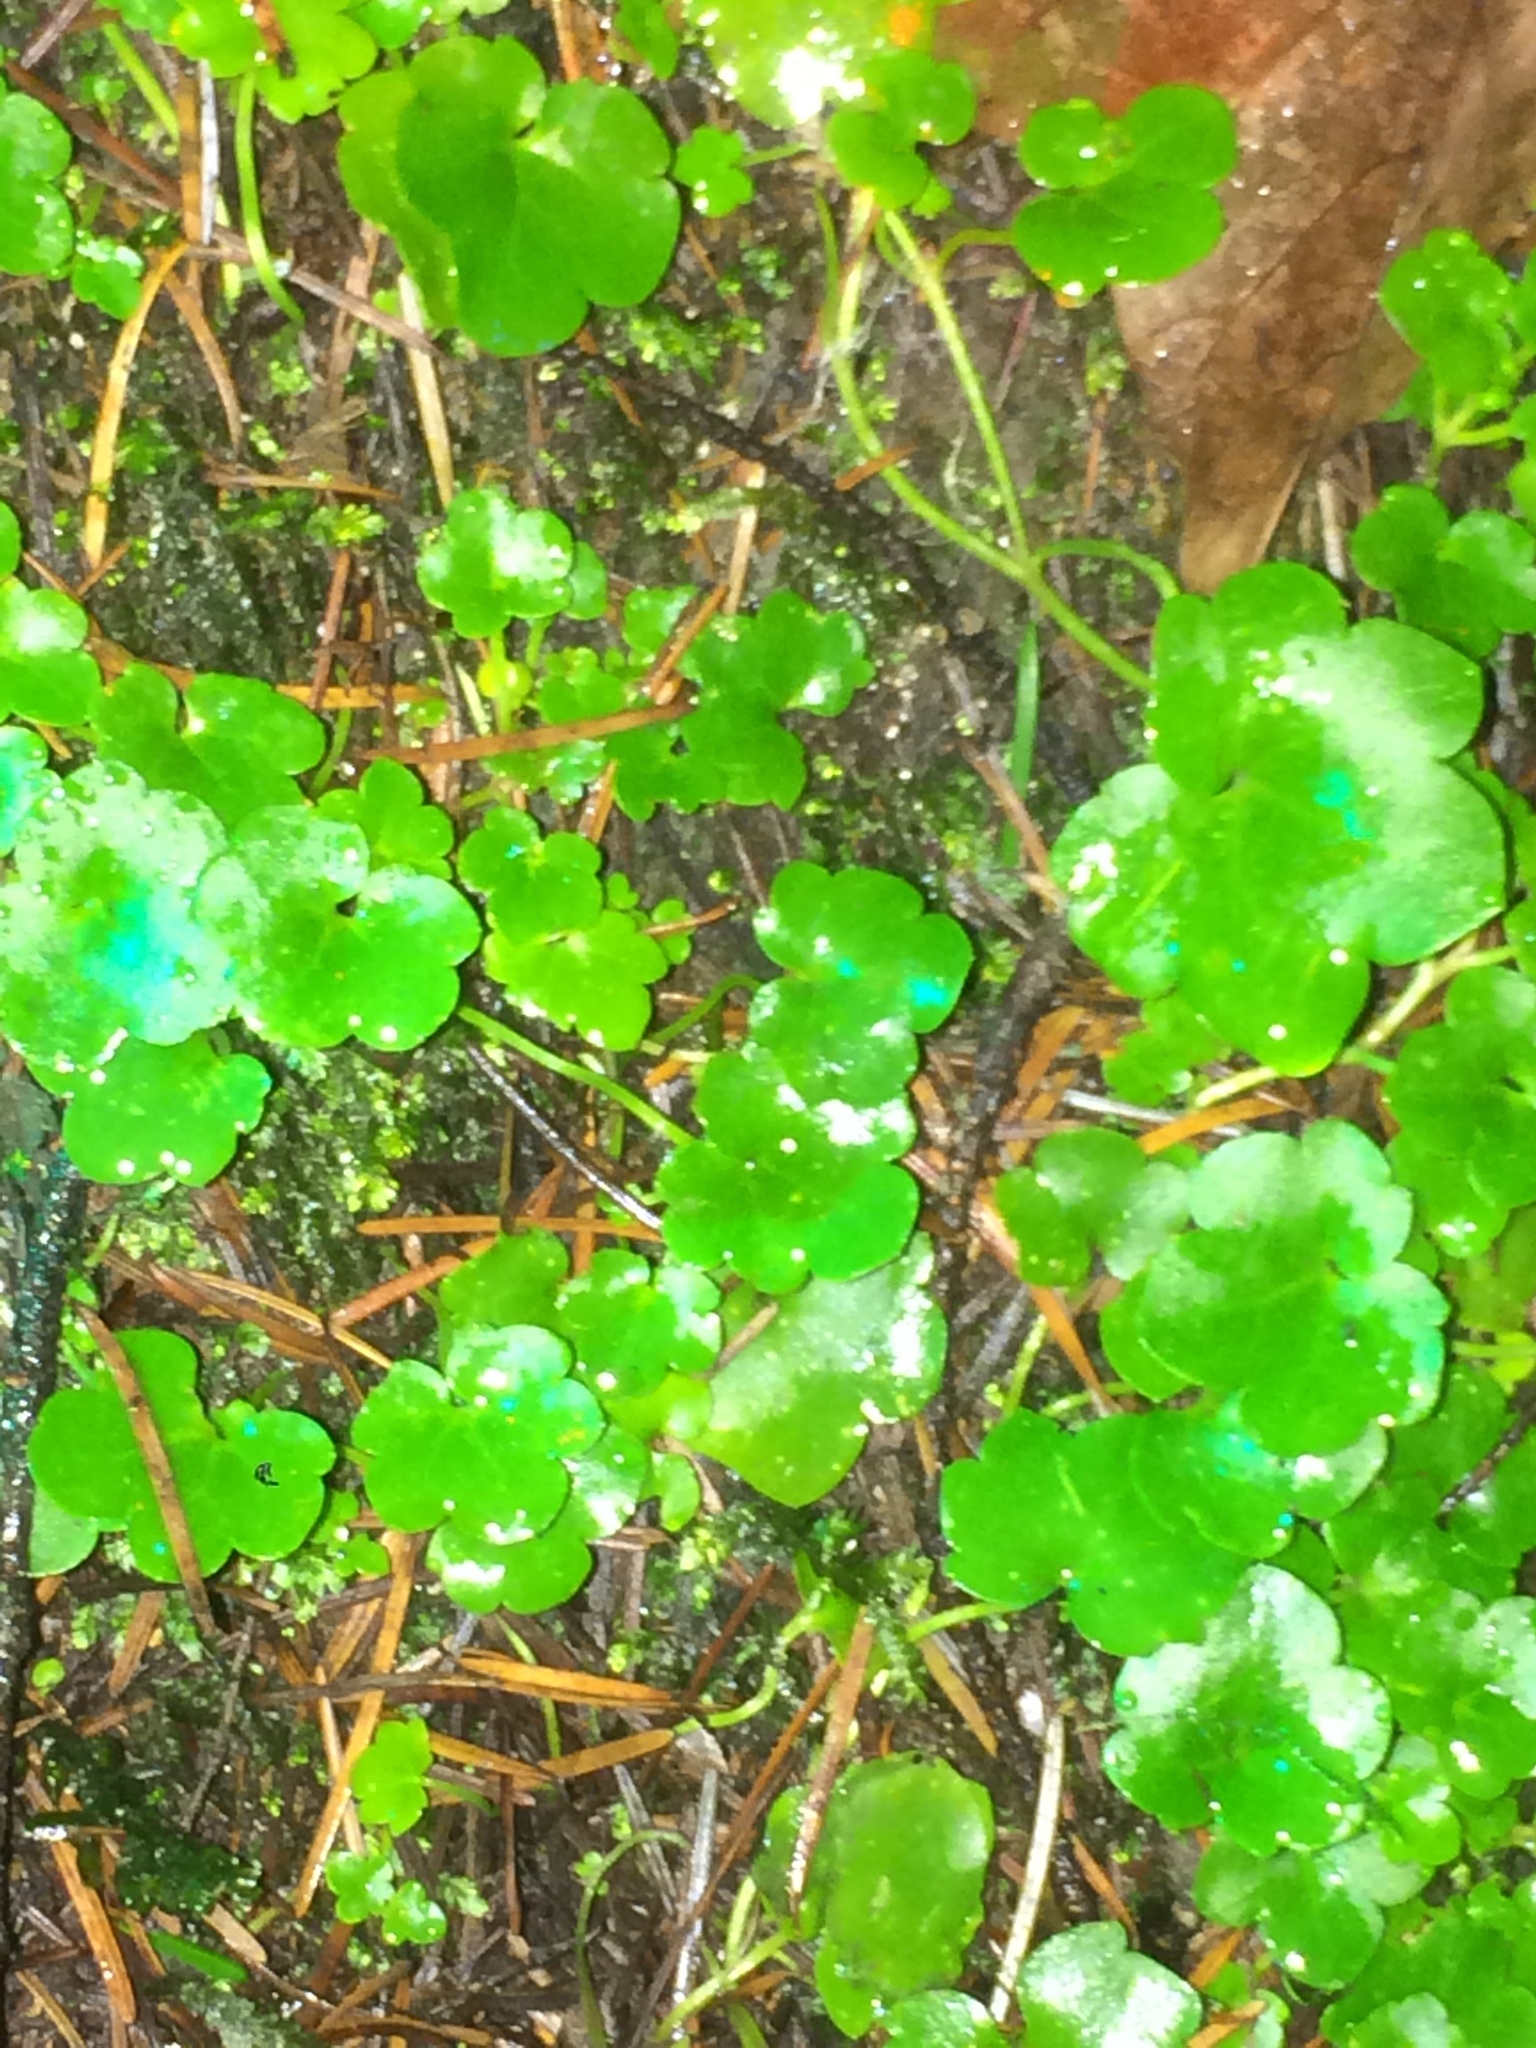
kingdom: Plantae
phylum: Tracheophyta
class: Magnoliopsida
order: Lamiales
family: Plantaginaceae
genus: Cymbalaria
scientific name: Cymbalaria muralis
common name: Ivy-leaved toadflax
